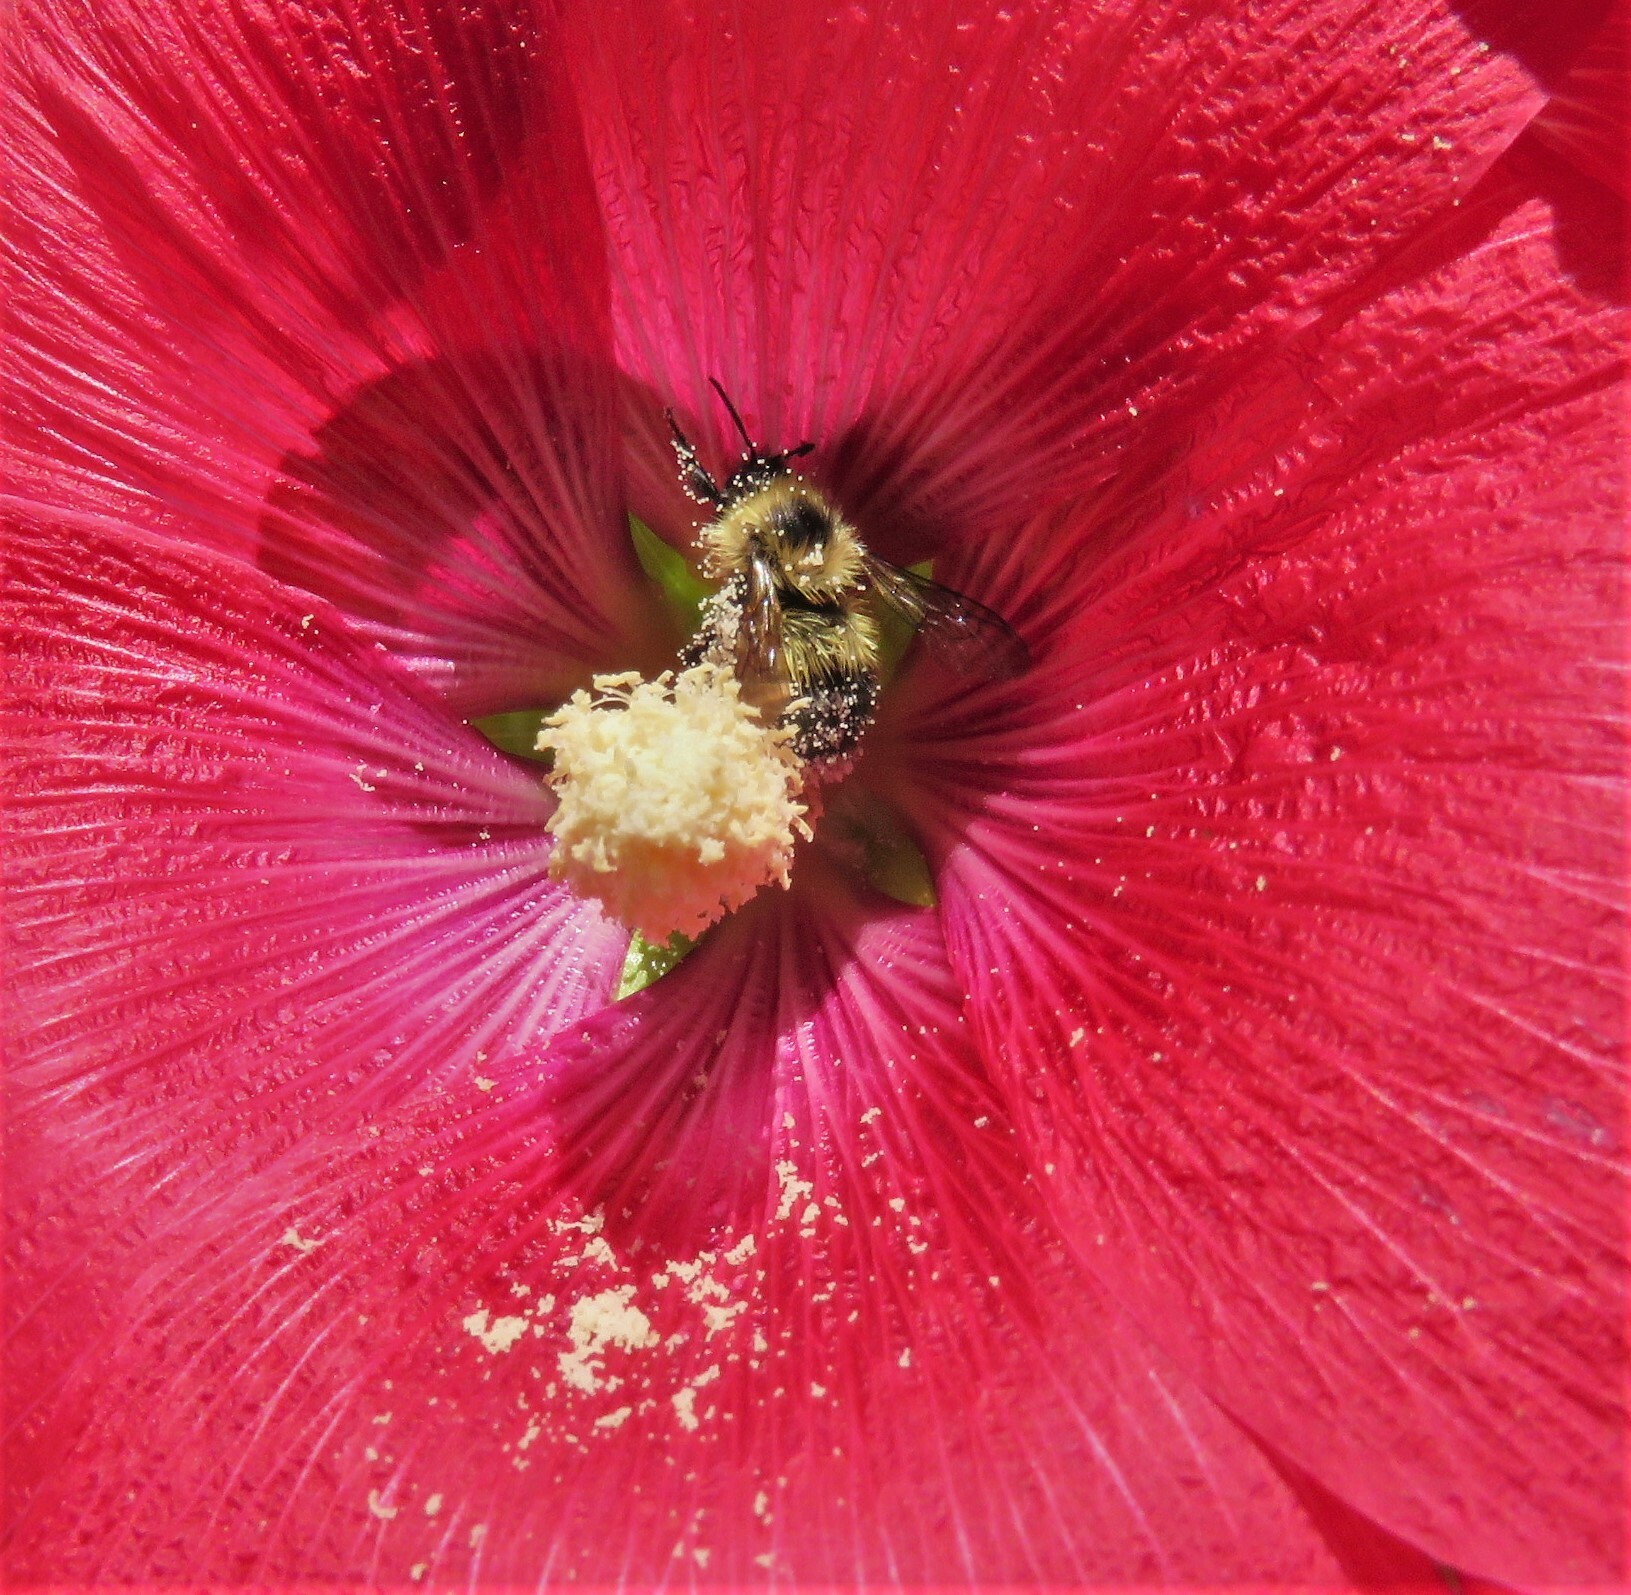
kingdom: Animalia
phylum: Arthropoda
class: Insecta
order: Hymenoptera
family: Apidae
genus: Pyrobombus
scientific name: Pyrobombus
